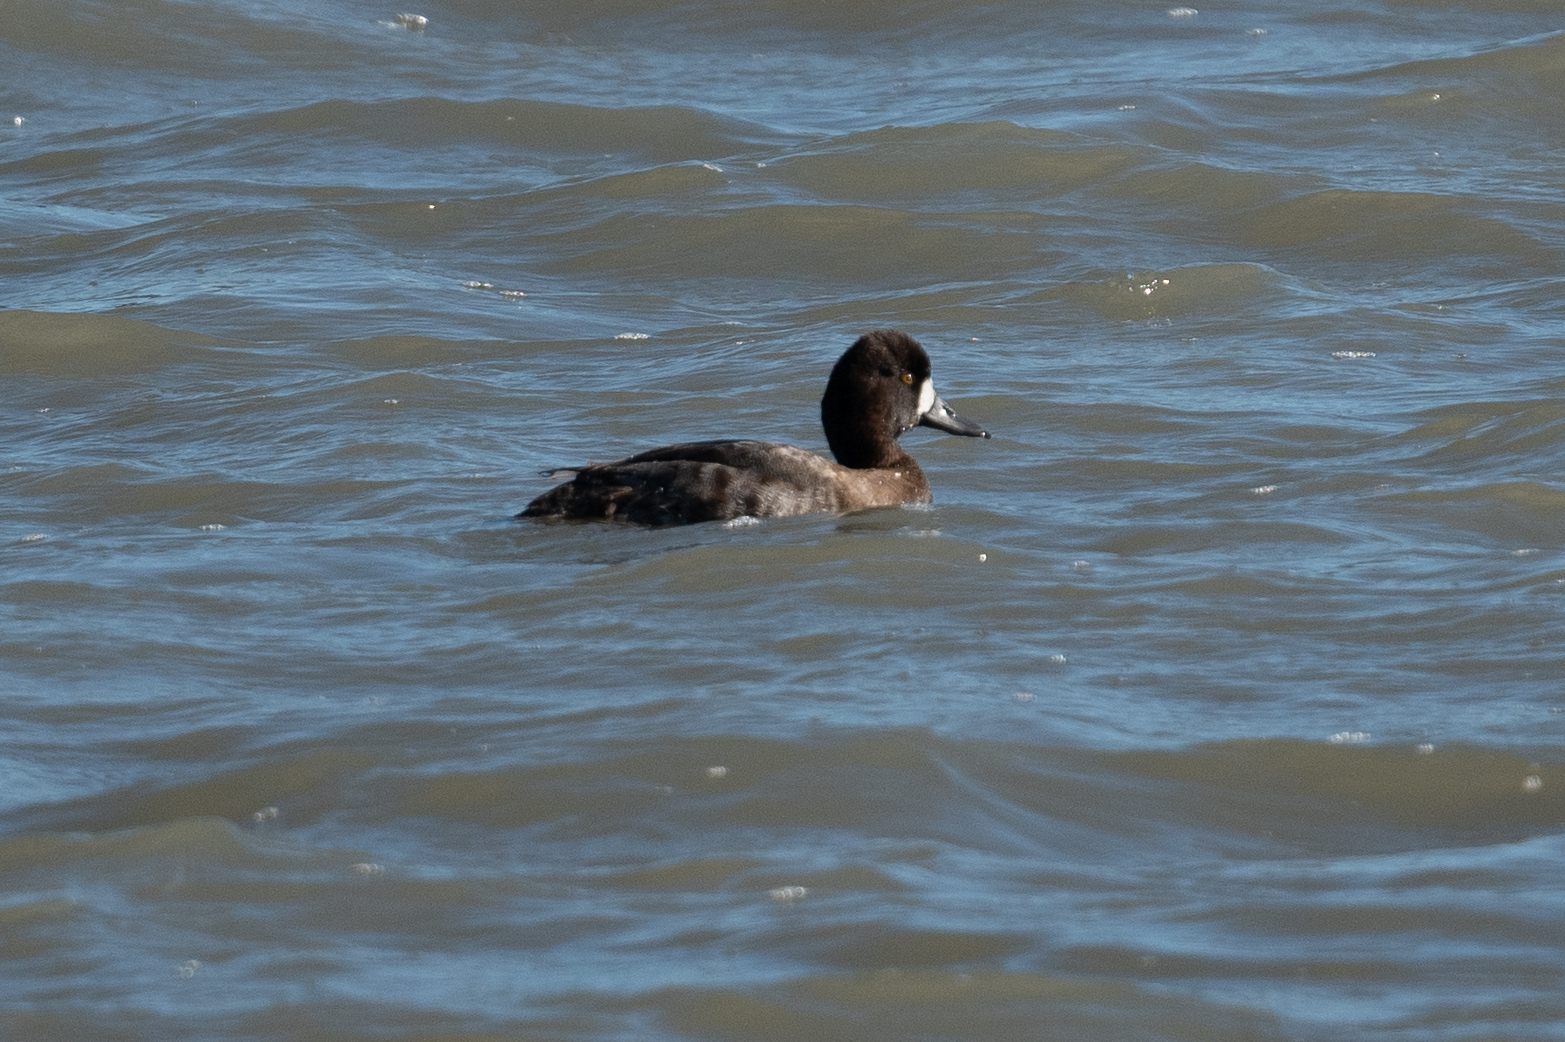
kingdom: Animalia
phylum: Chordata
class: Aves
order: Anseriformes
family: Anatidae
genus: Aythya
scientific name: Aythya marila
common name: Greater scaup
